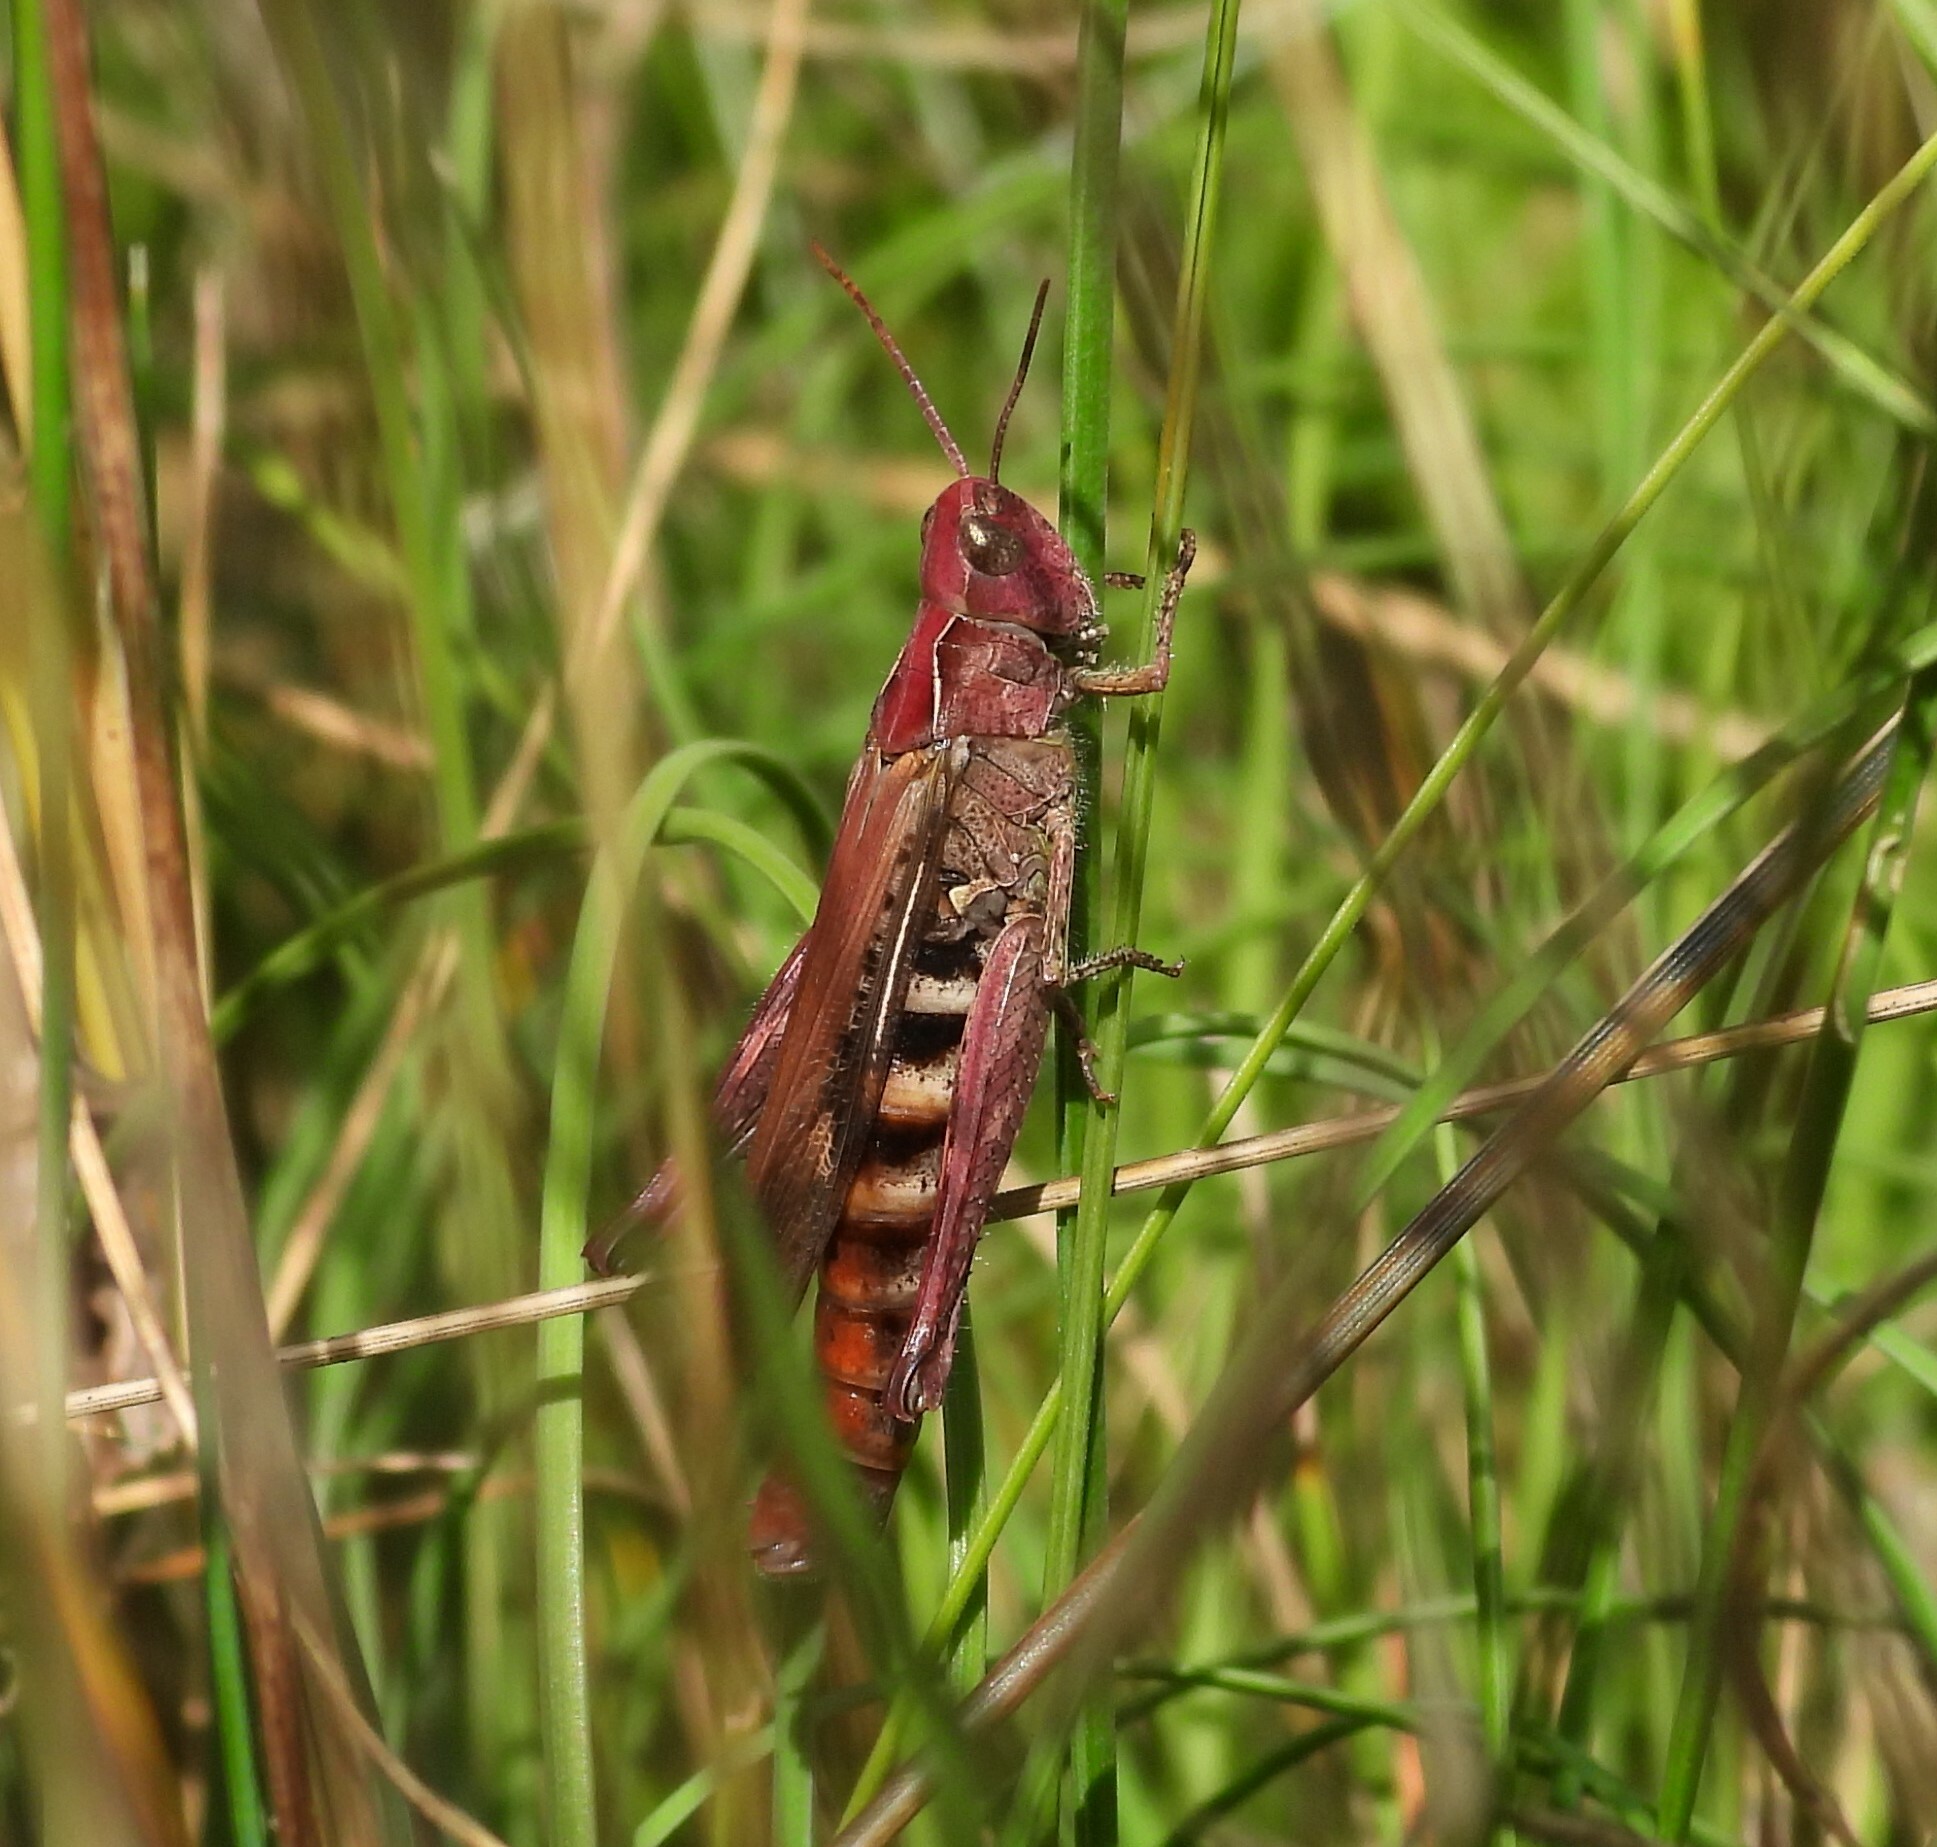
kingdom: Animalia
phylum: Arthropoda
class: Insecta
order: Orthoptera
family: Acrididae
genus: Chorthippus
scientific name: Chorthippus brunneus
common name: Field grasshopper
